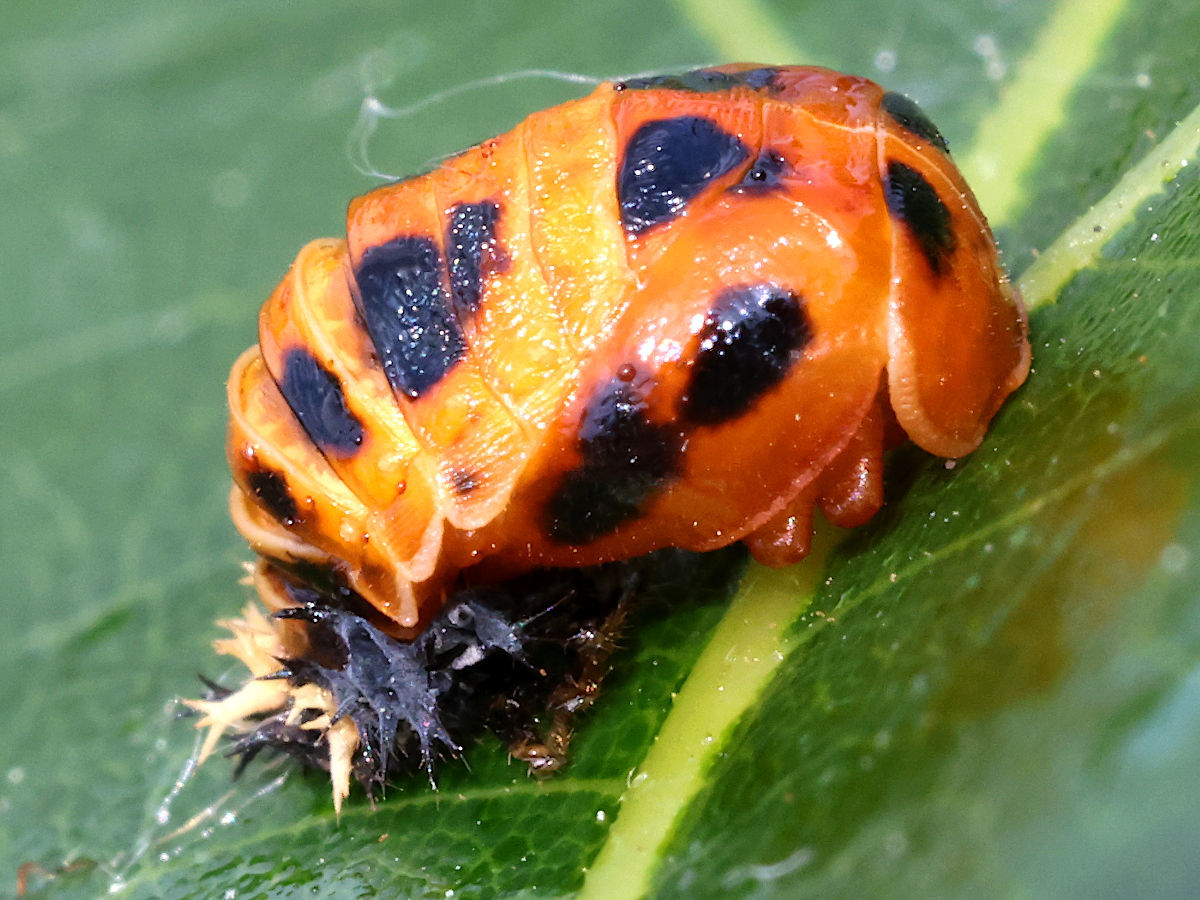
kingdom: Animalia
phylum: Arthropoda
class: Insecta
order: Coleoptera
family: Coccinellidae
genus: Harmonia
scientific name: Harmonia axyridis
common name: Harlequin ladybird
